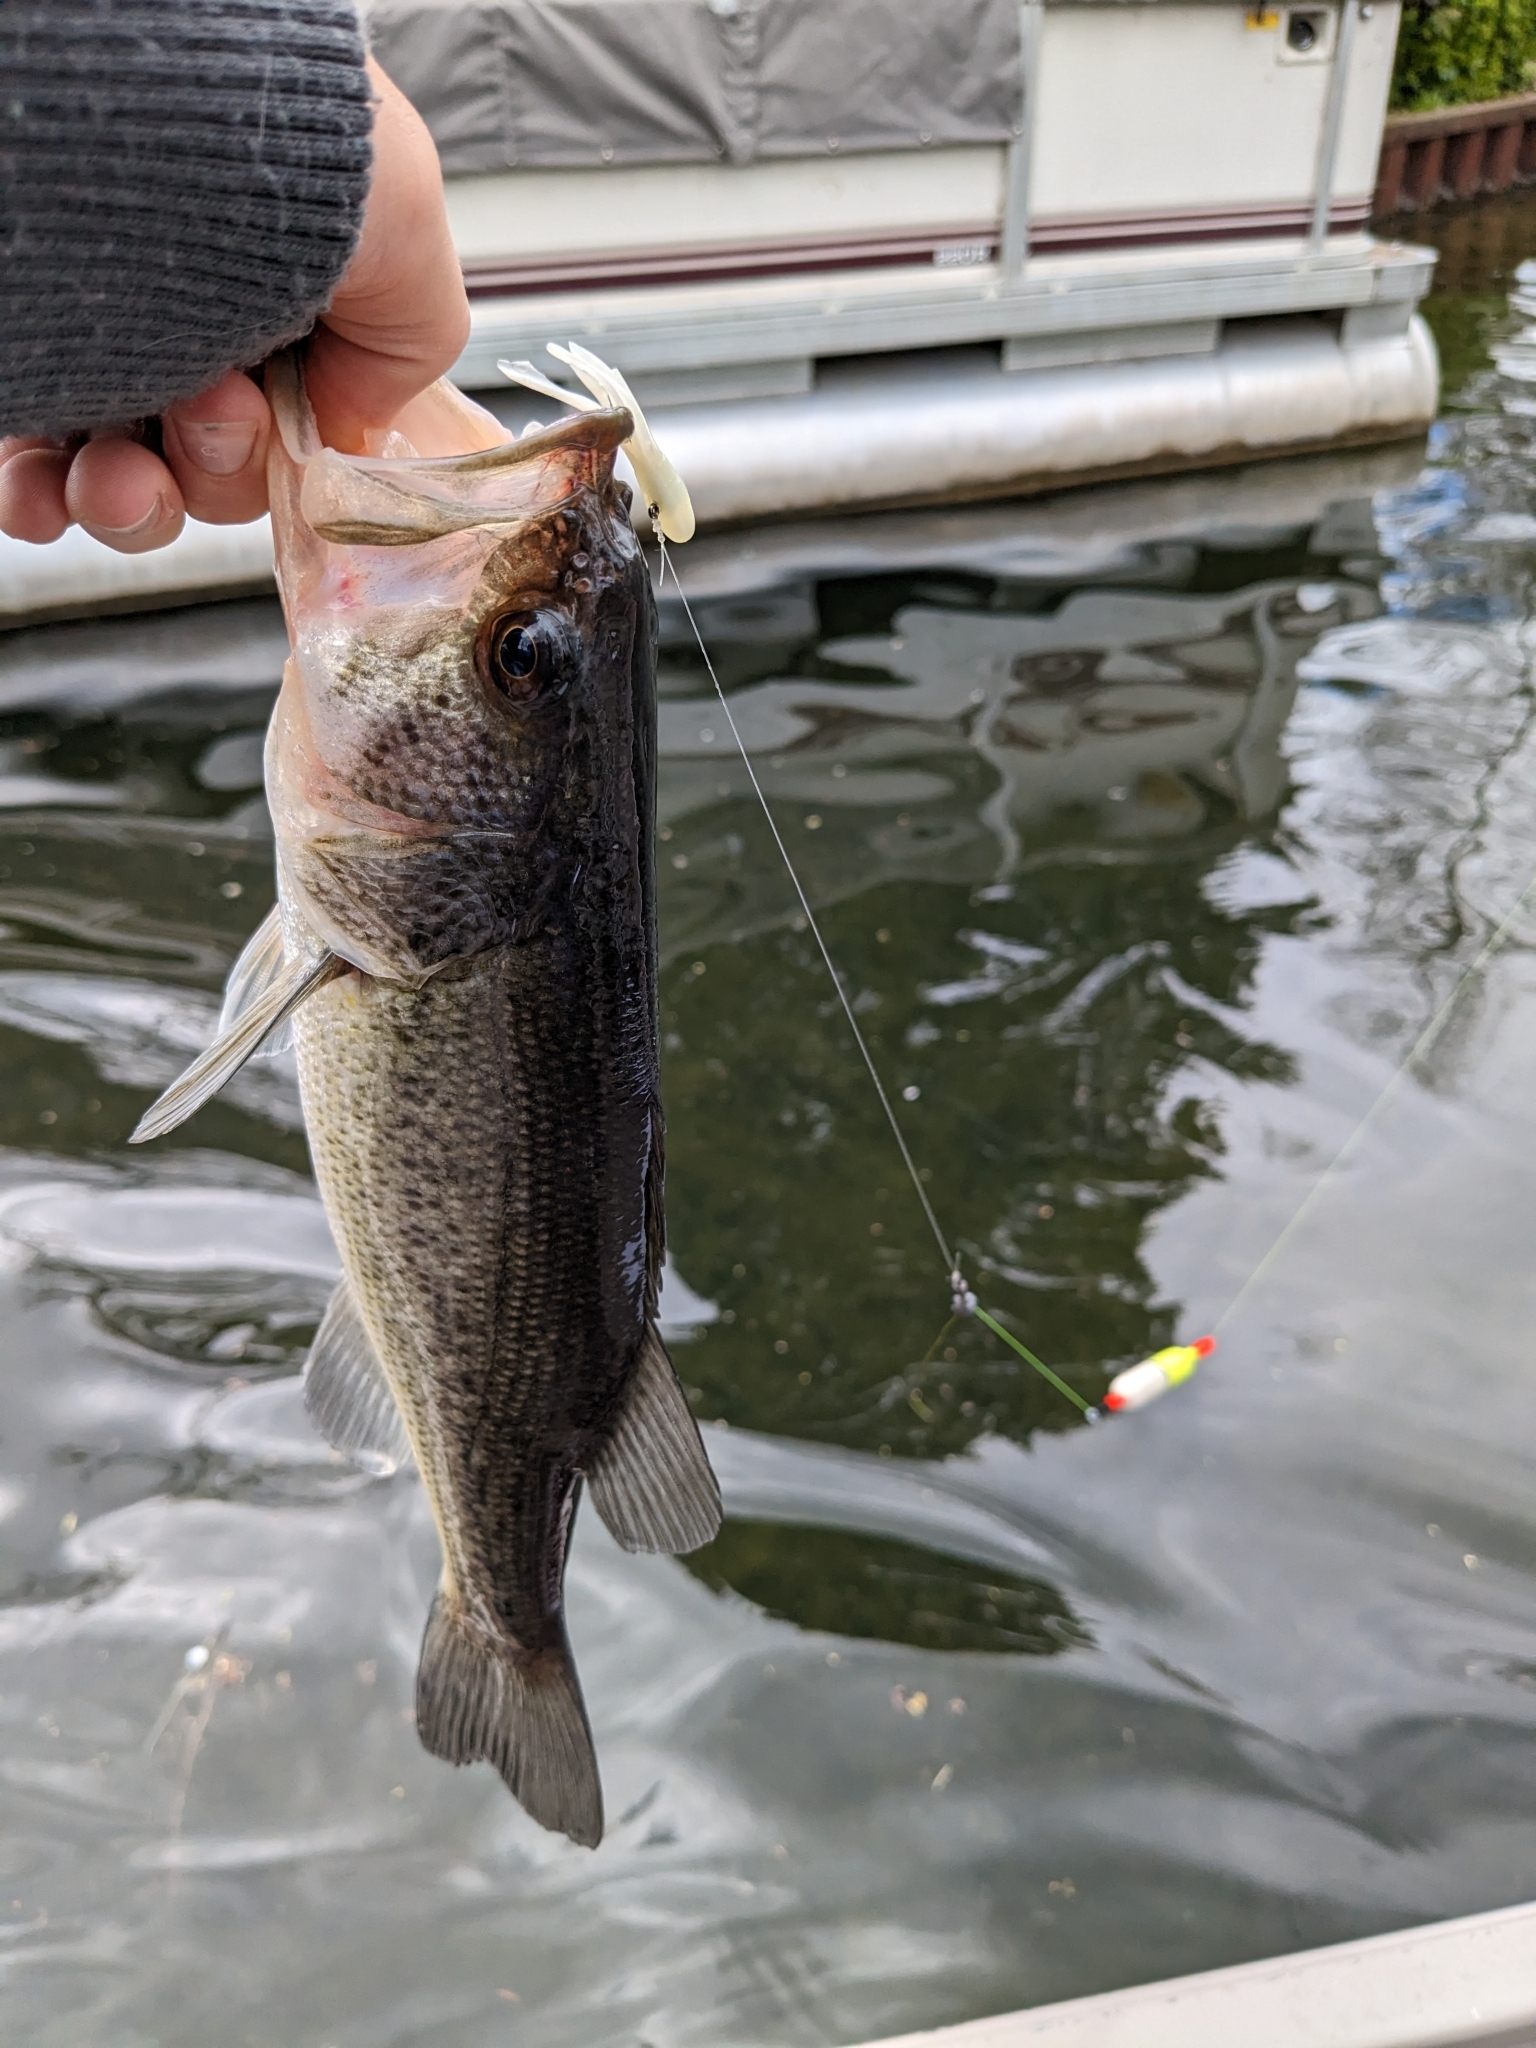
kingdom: Animalia
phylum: Chordata
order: Perciformes
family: Centrarchidae
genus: Micropterus
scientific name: Micropterus
